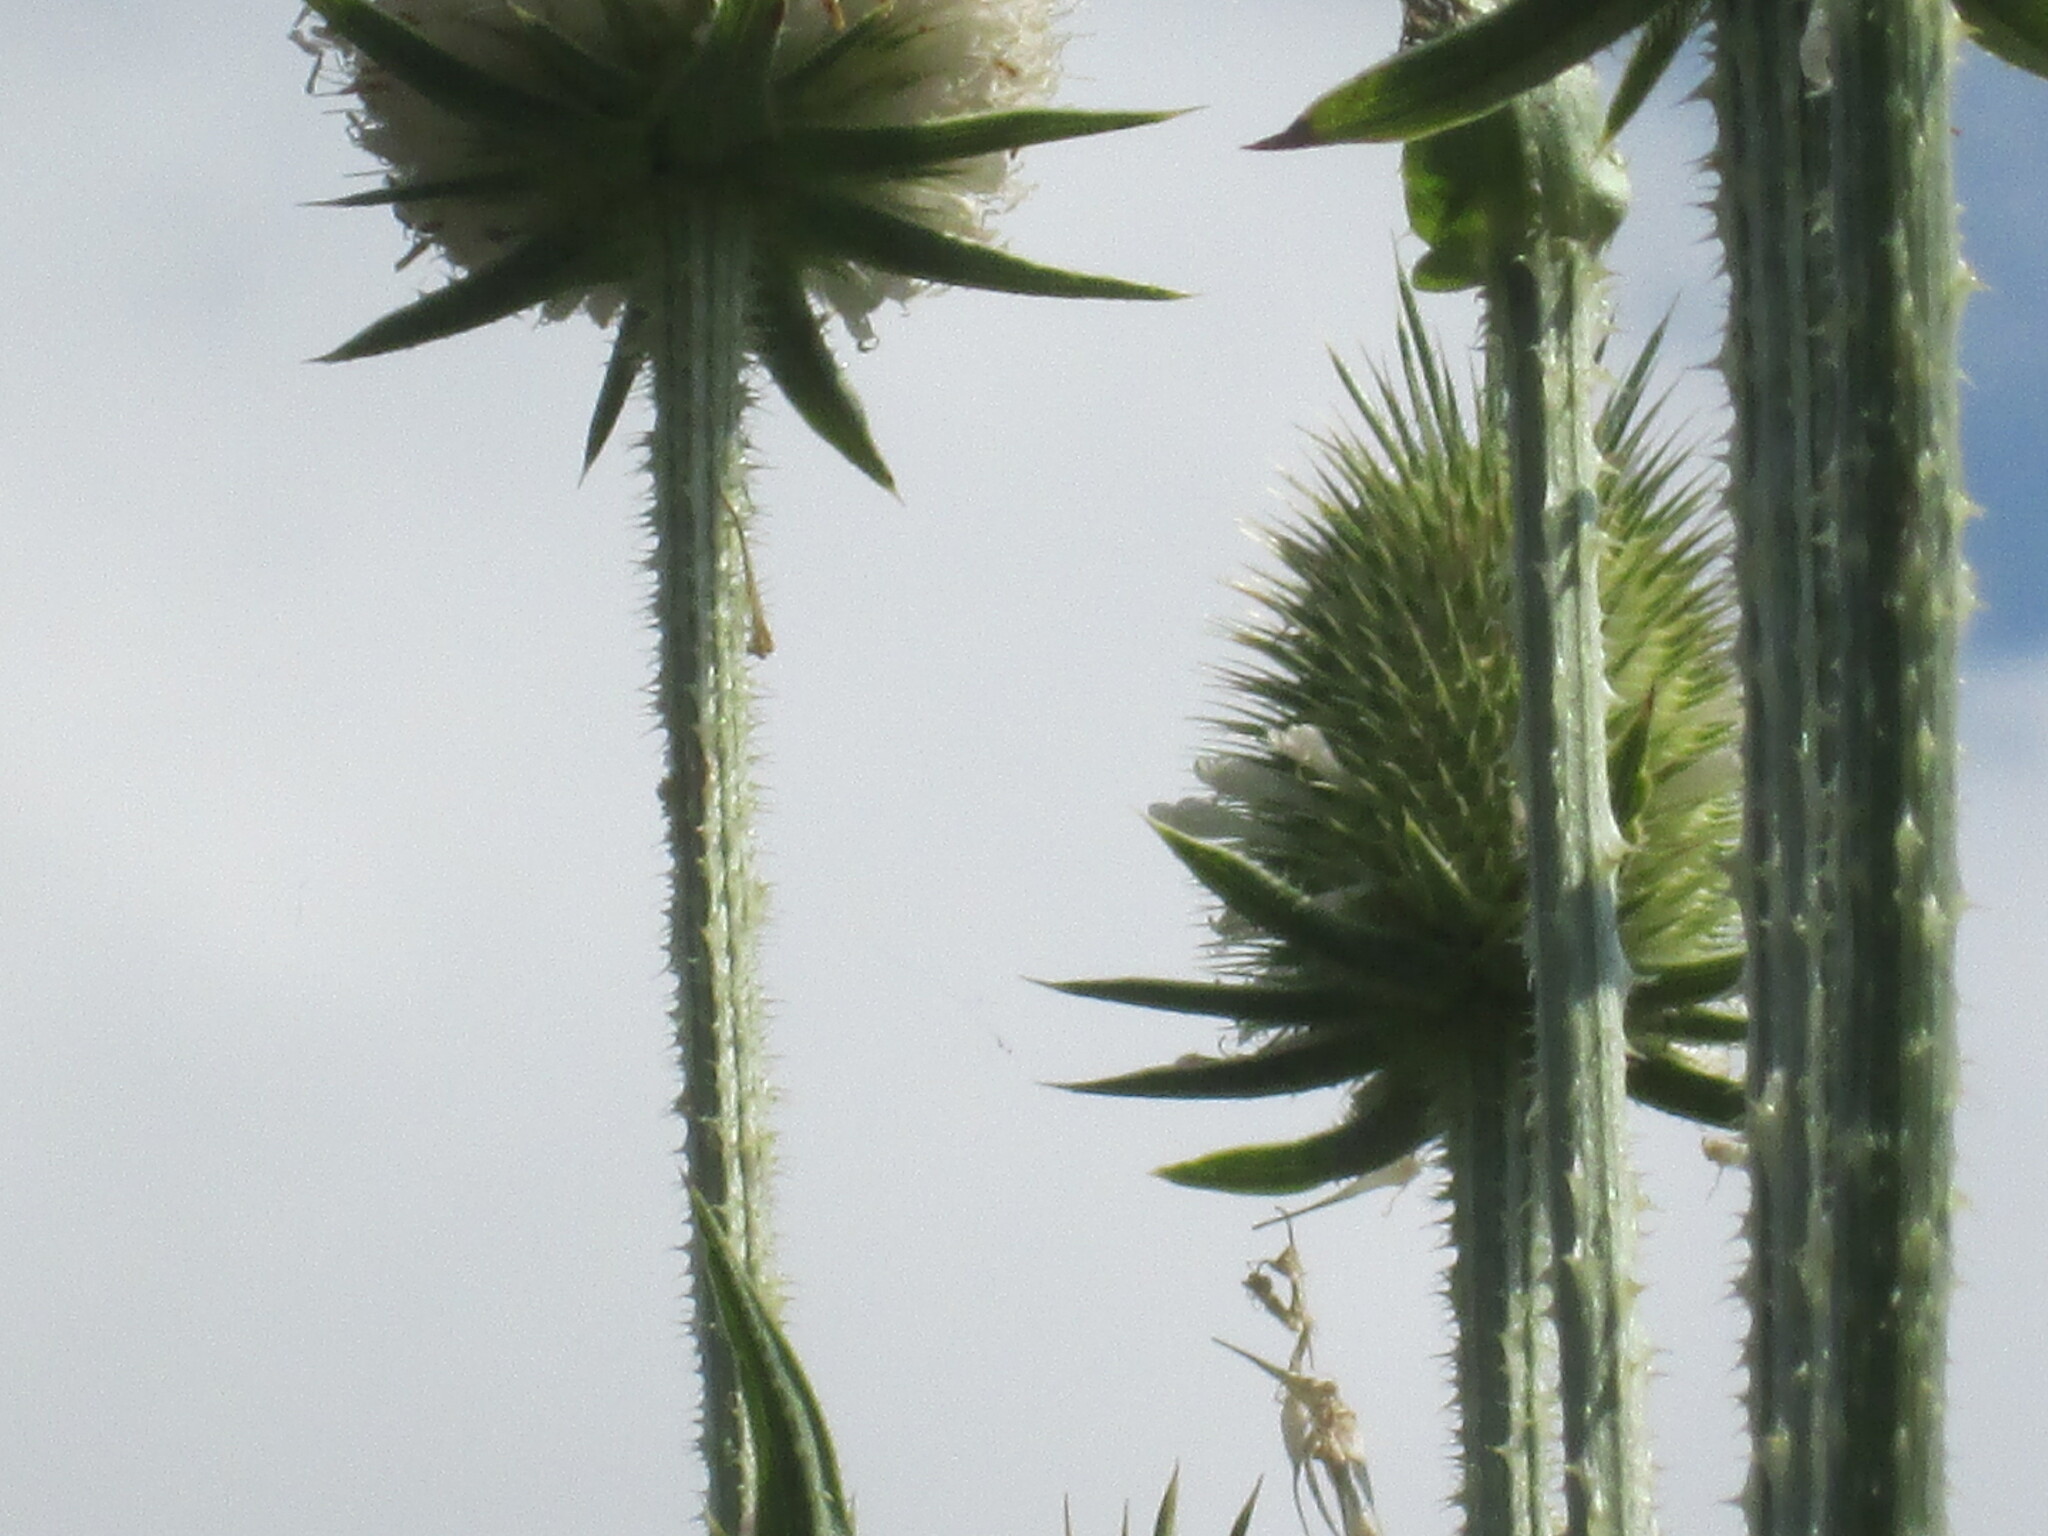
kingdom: Plantae
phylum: Tracheophyta
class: Magnoliopsida
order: Dipsacales
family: Caprifoliaceae
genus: Dipsacus
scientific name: Dipsacus laciniatus
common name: Cut-leaved teasel
